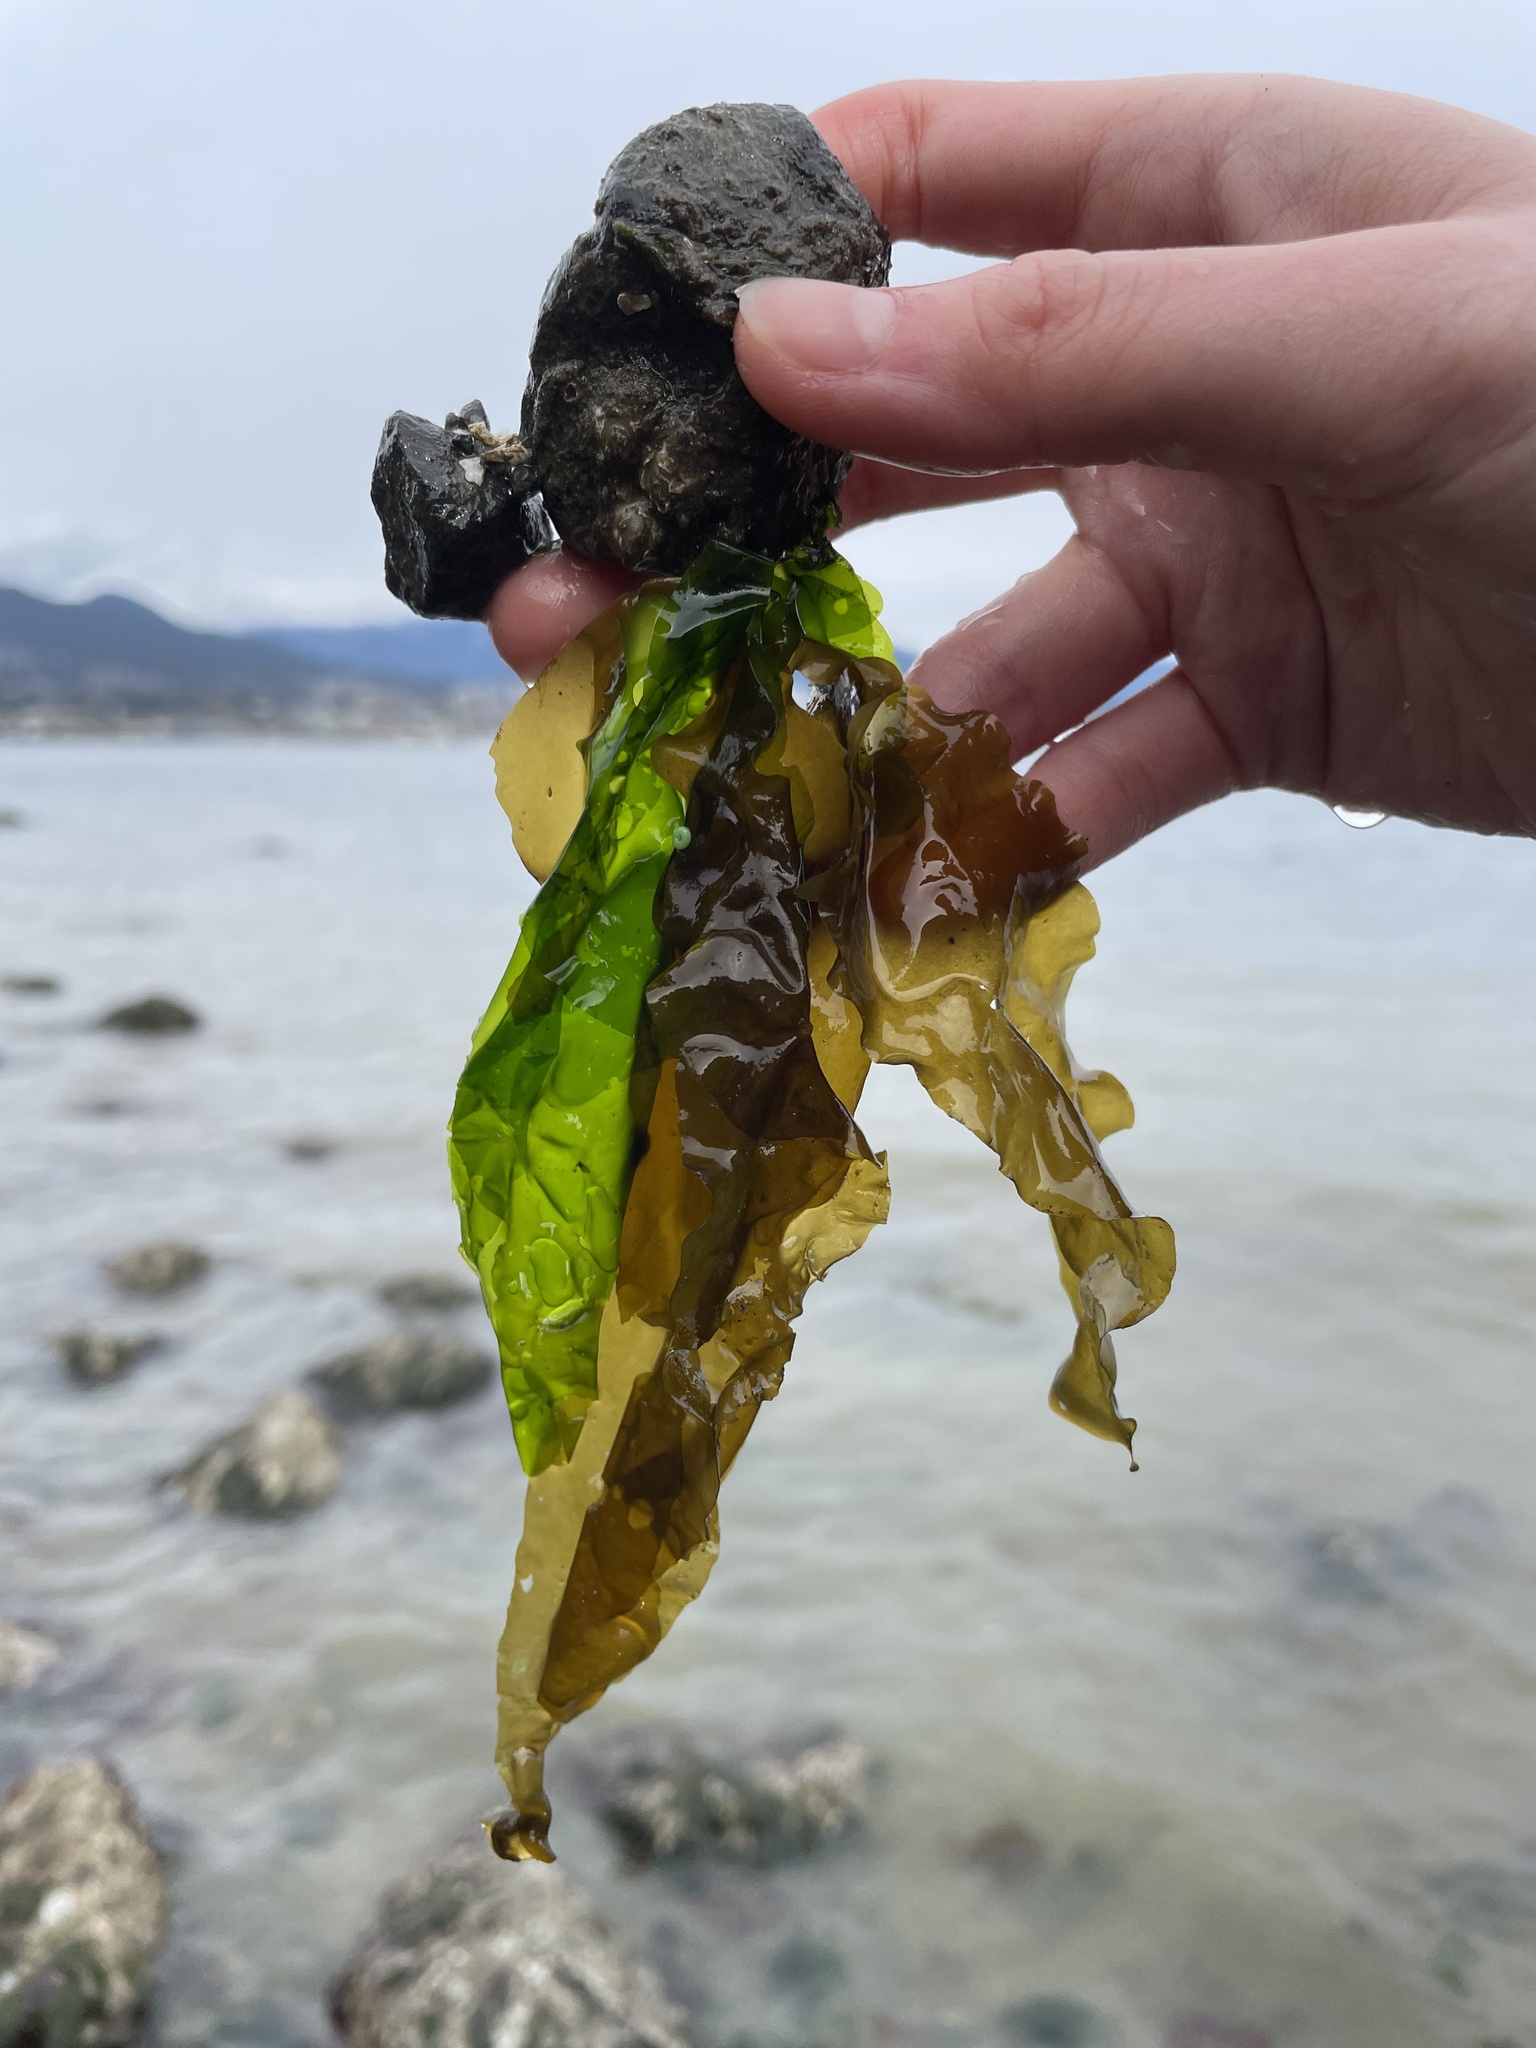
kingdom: Plantae
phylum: Chlorophyta
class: Ulvophyceae
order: Ulvales
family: Ulvaceae
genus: Ulva
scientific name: Ulva fenestrata
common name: Sea lettuce
